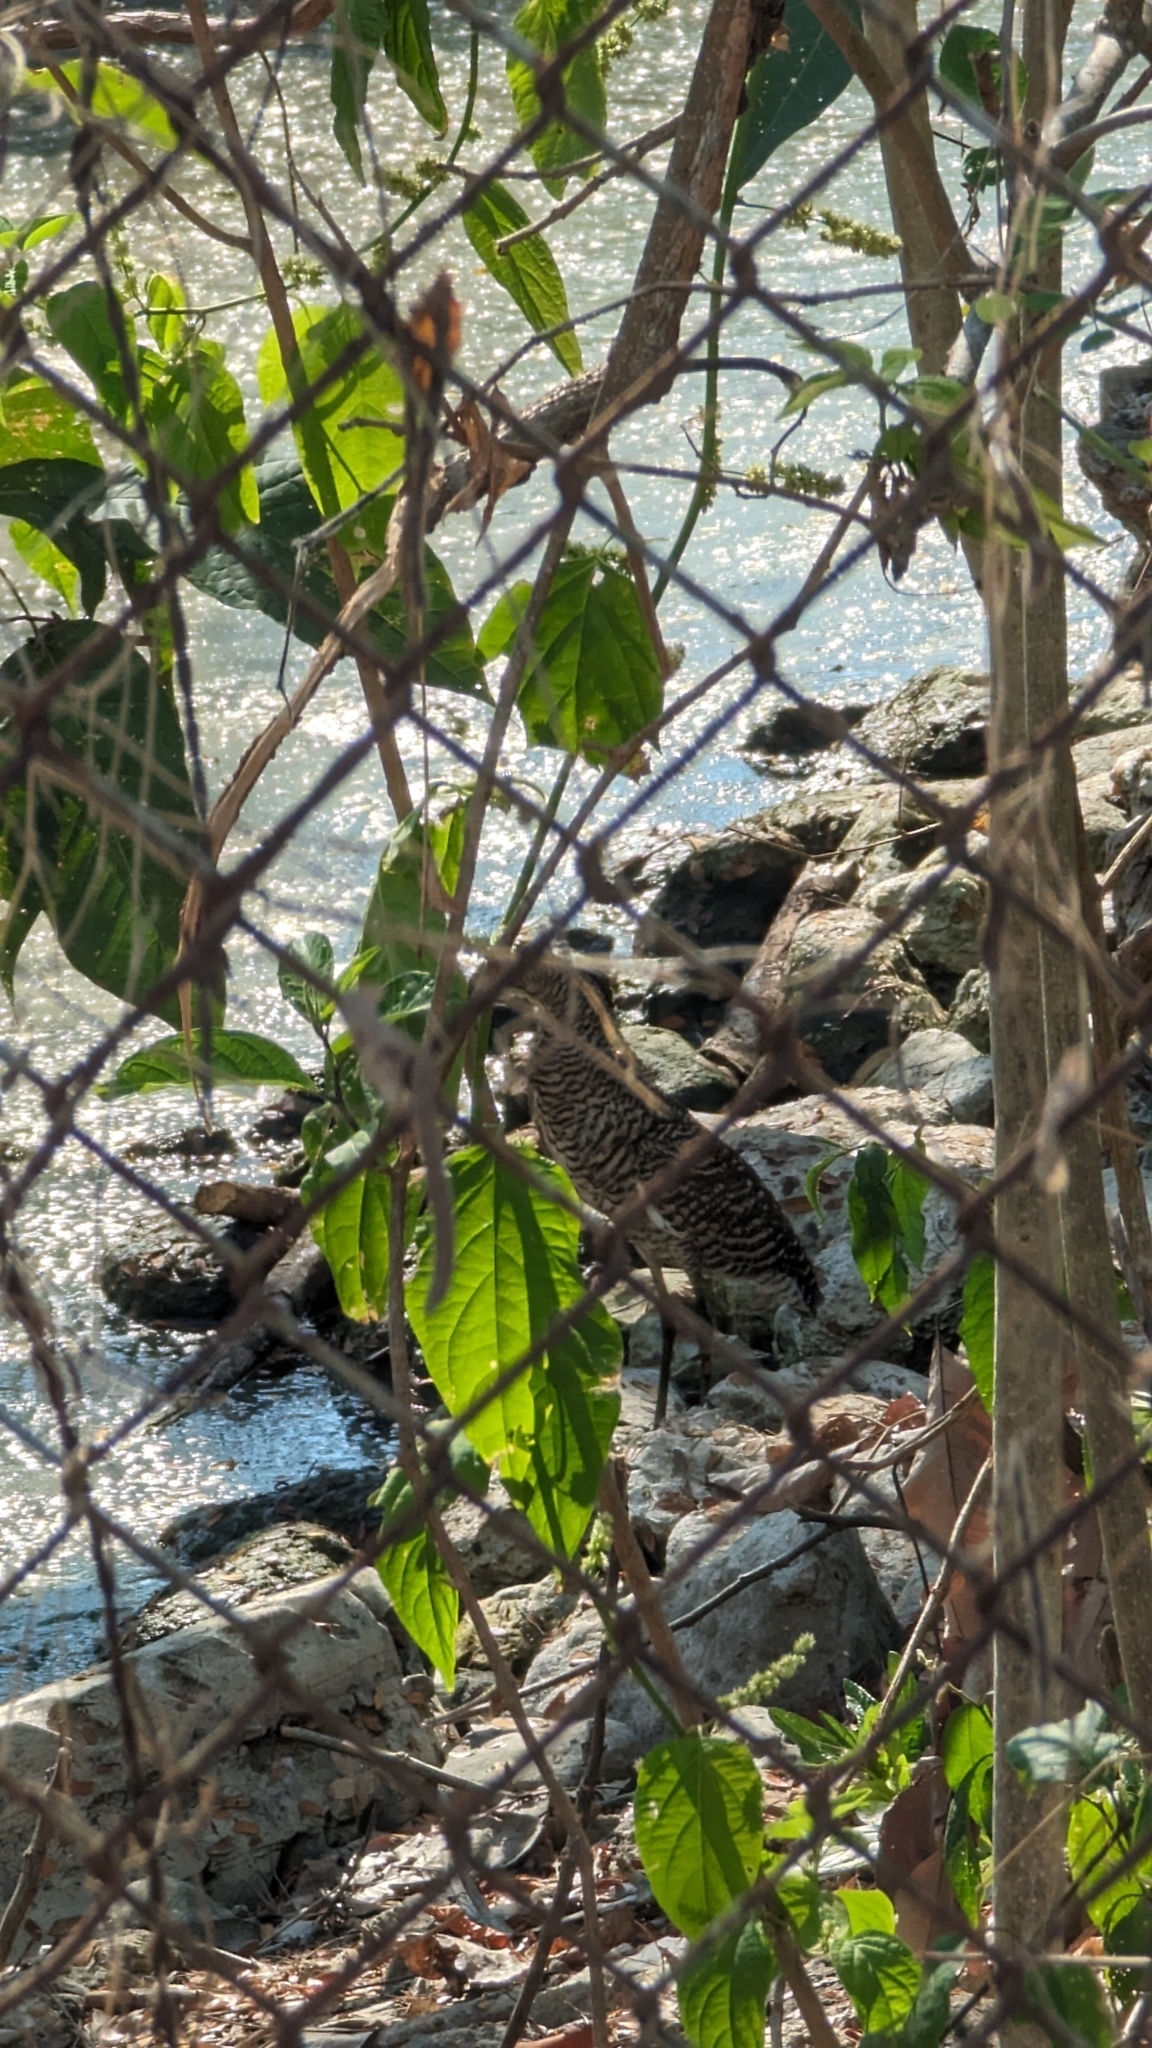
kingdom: Animalia
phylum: Chordata
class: Aves
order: Pelecaniformes
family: Ardeidae
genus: Tigrisoma
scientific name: Tigrisoma mexicanum
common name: Bare-throated tiger-heron
